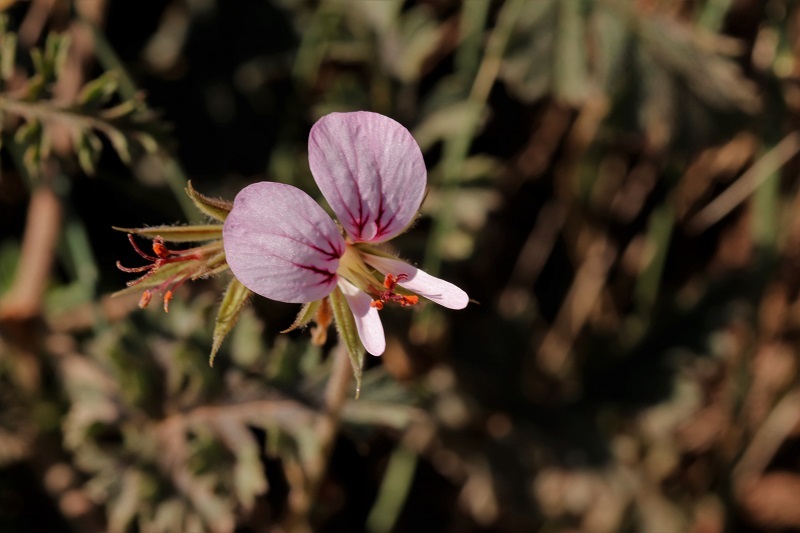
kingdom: Plantae
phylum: Tracheophyta
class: Magnoliopsida
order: Geraniales
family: Geraniaceae
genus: Pelargonium
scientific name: Pelargonium candicans
